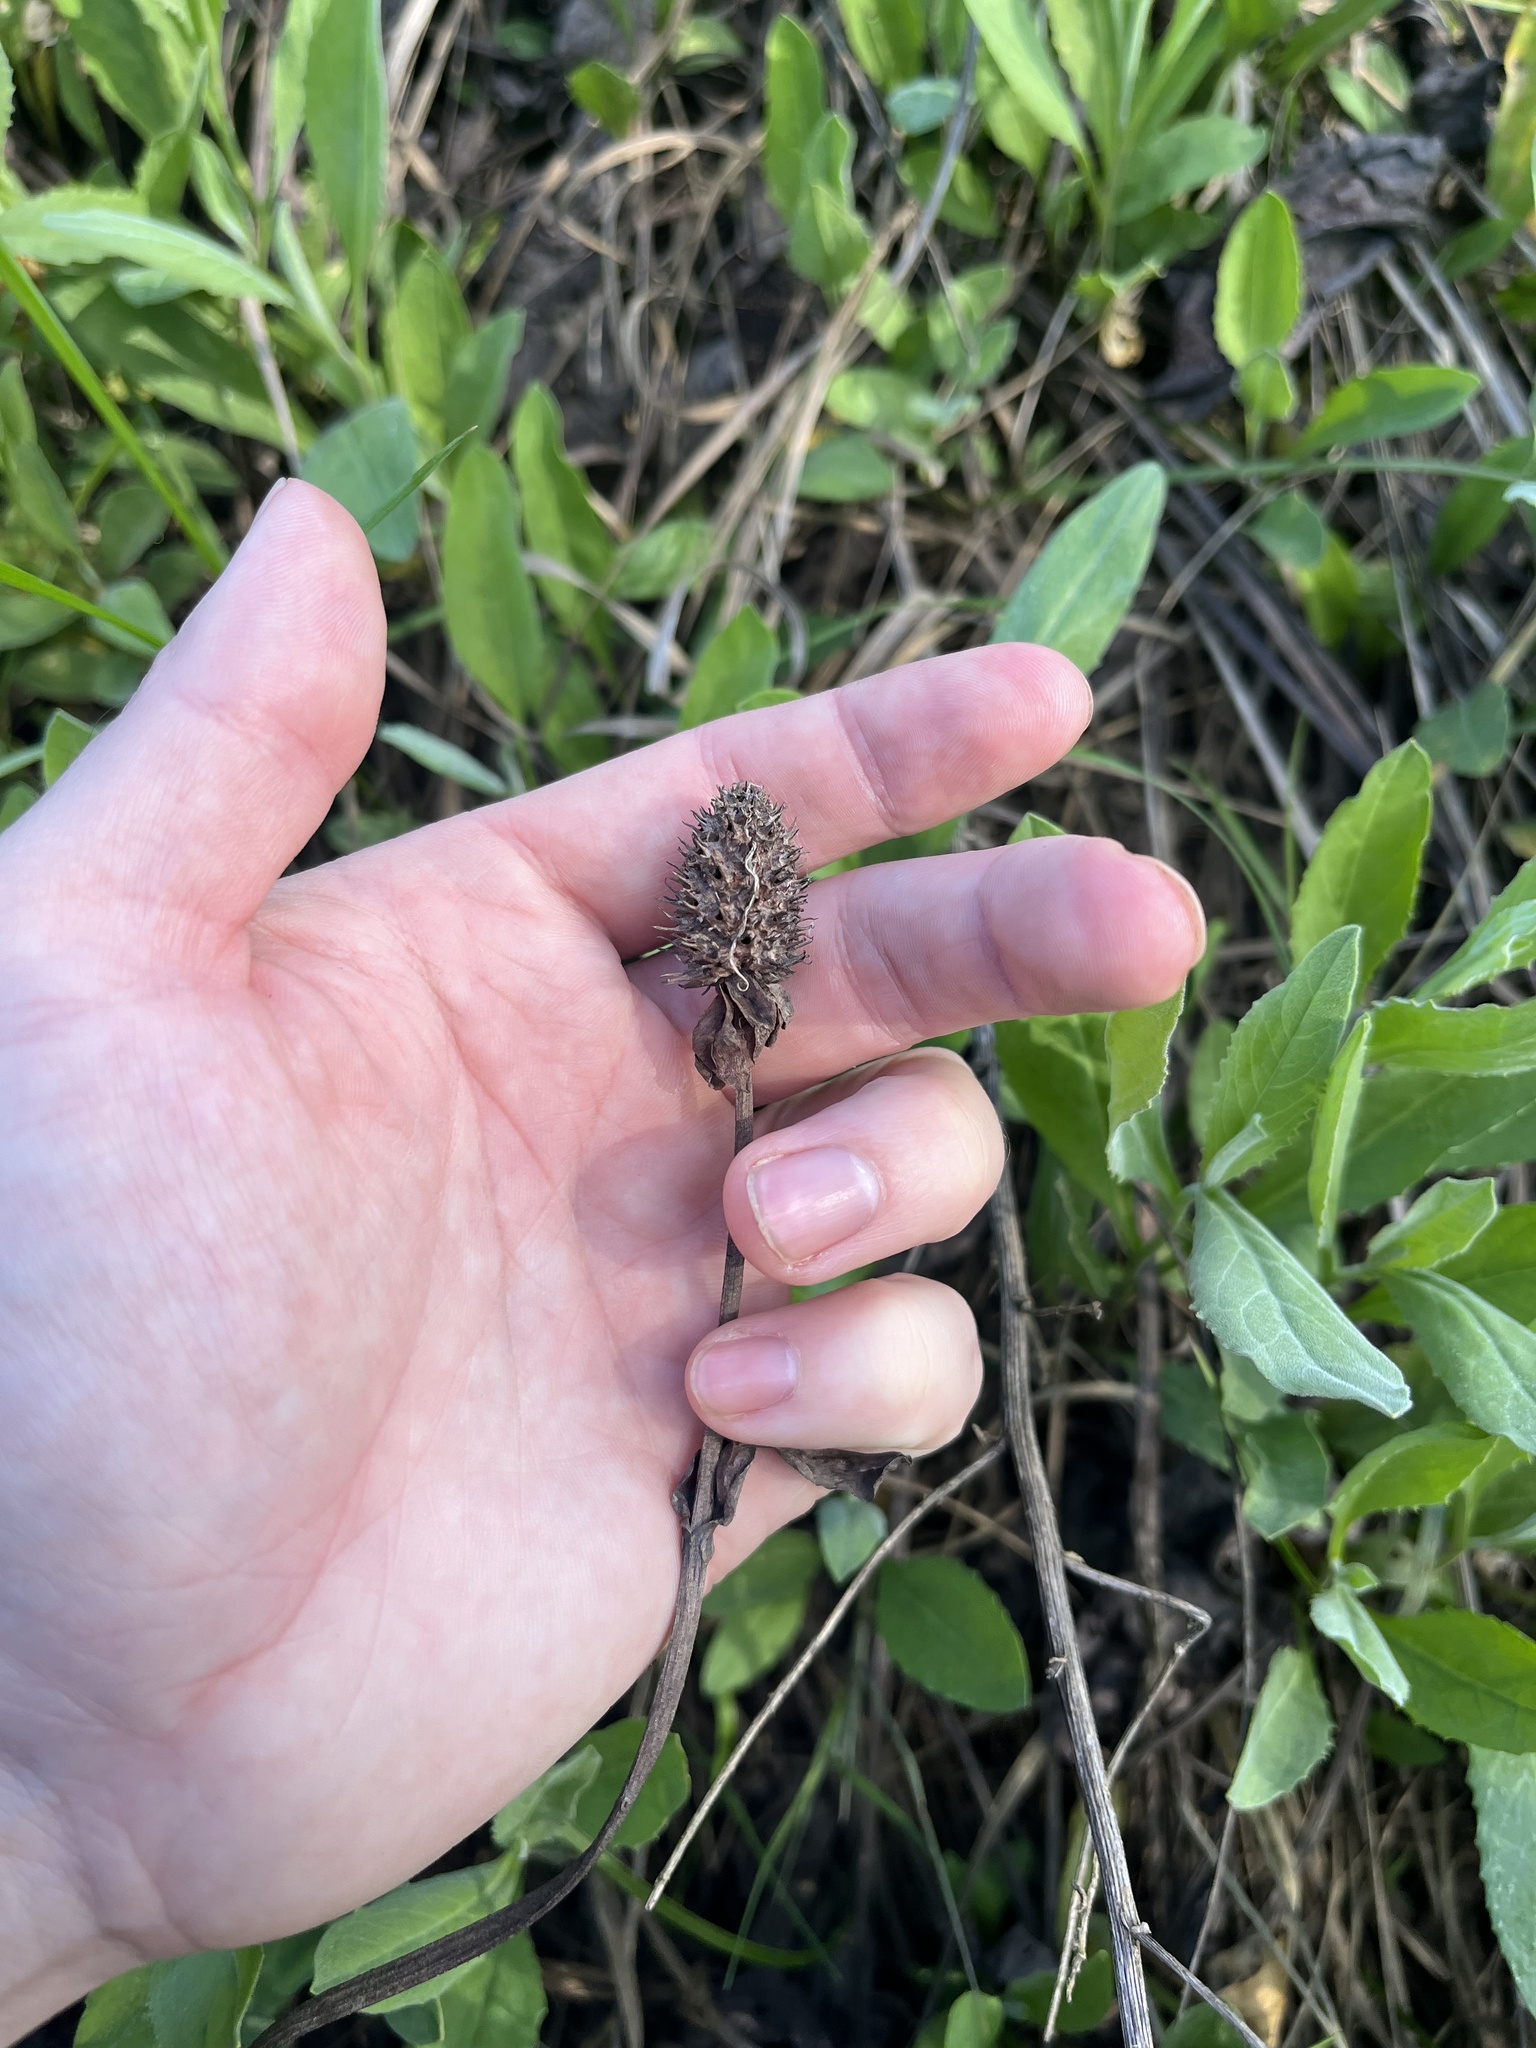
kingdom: Plantae
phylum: Tracheophyta
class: Magnoliopsida
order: Piperales
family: Saururaceae
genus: Anemopsis
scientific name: Anemopsis californica
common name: Apache-beads
